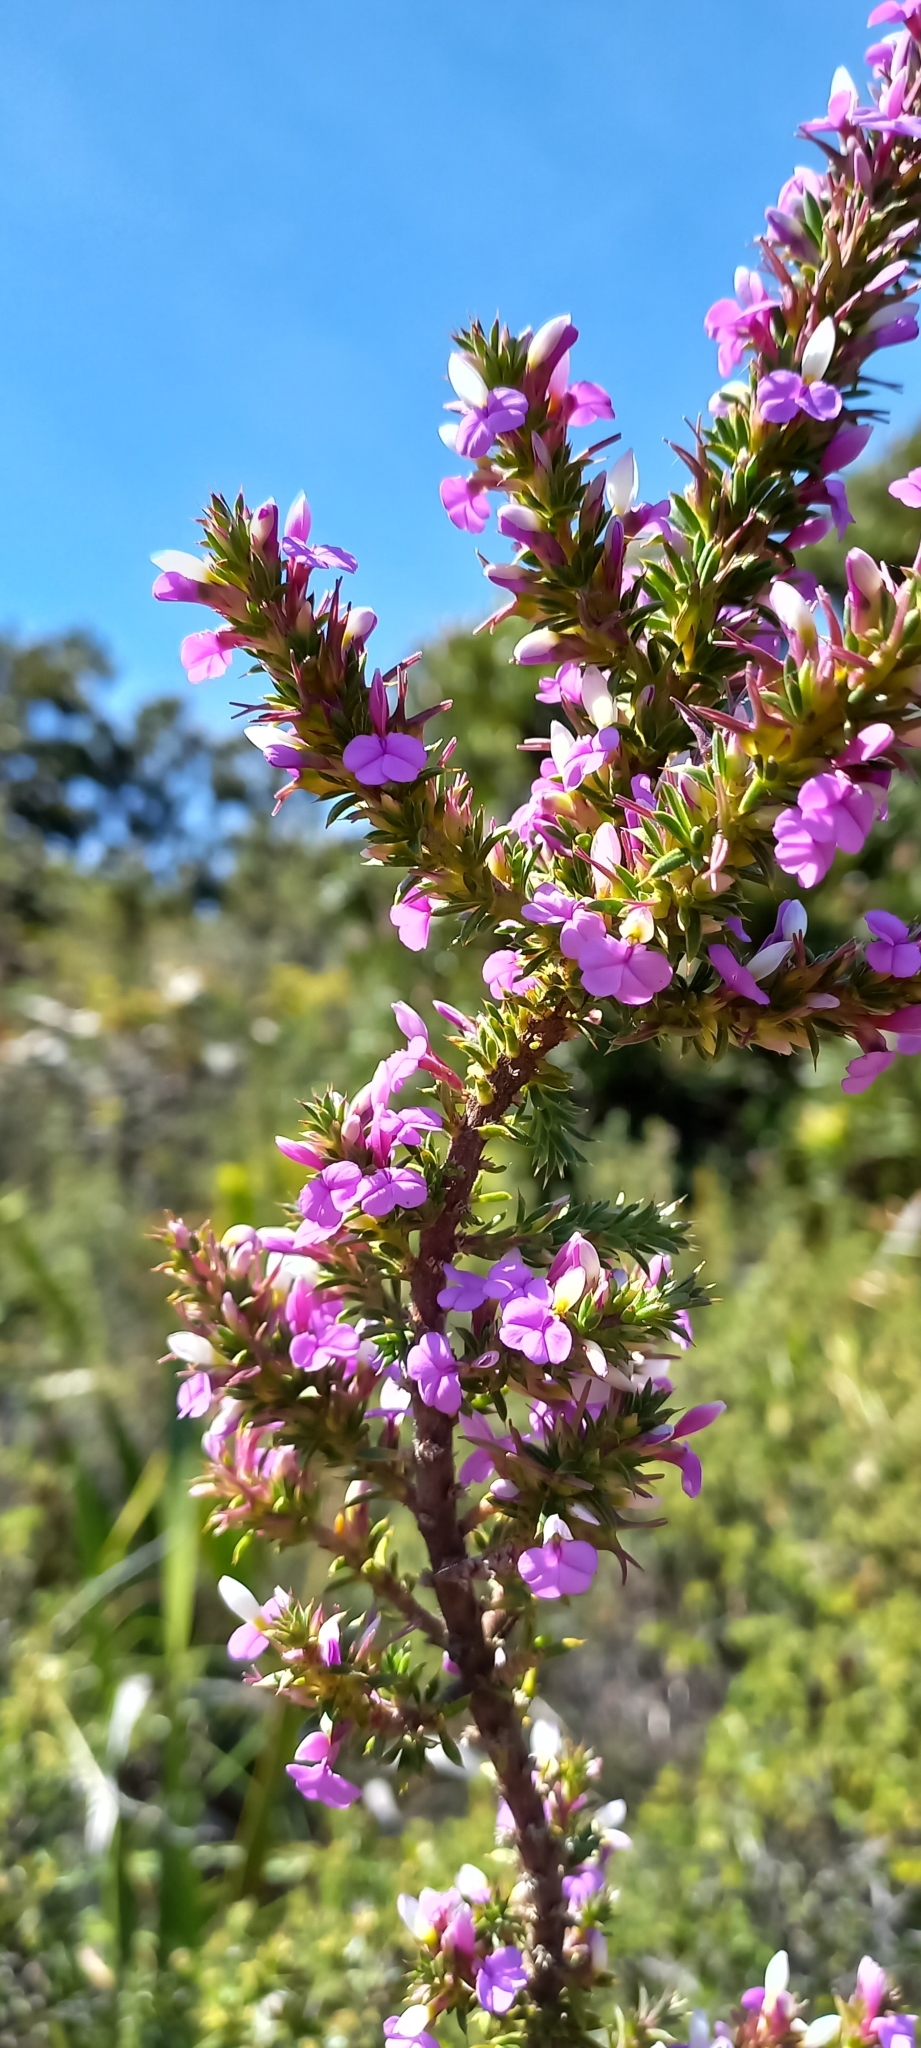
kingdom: Plantae
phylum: Tracheophyta
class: Magnoliopsida
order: Fabales
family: Polygalaceae
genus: Muraltia
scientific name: Muraltia heisteria
